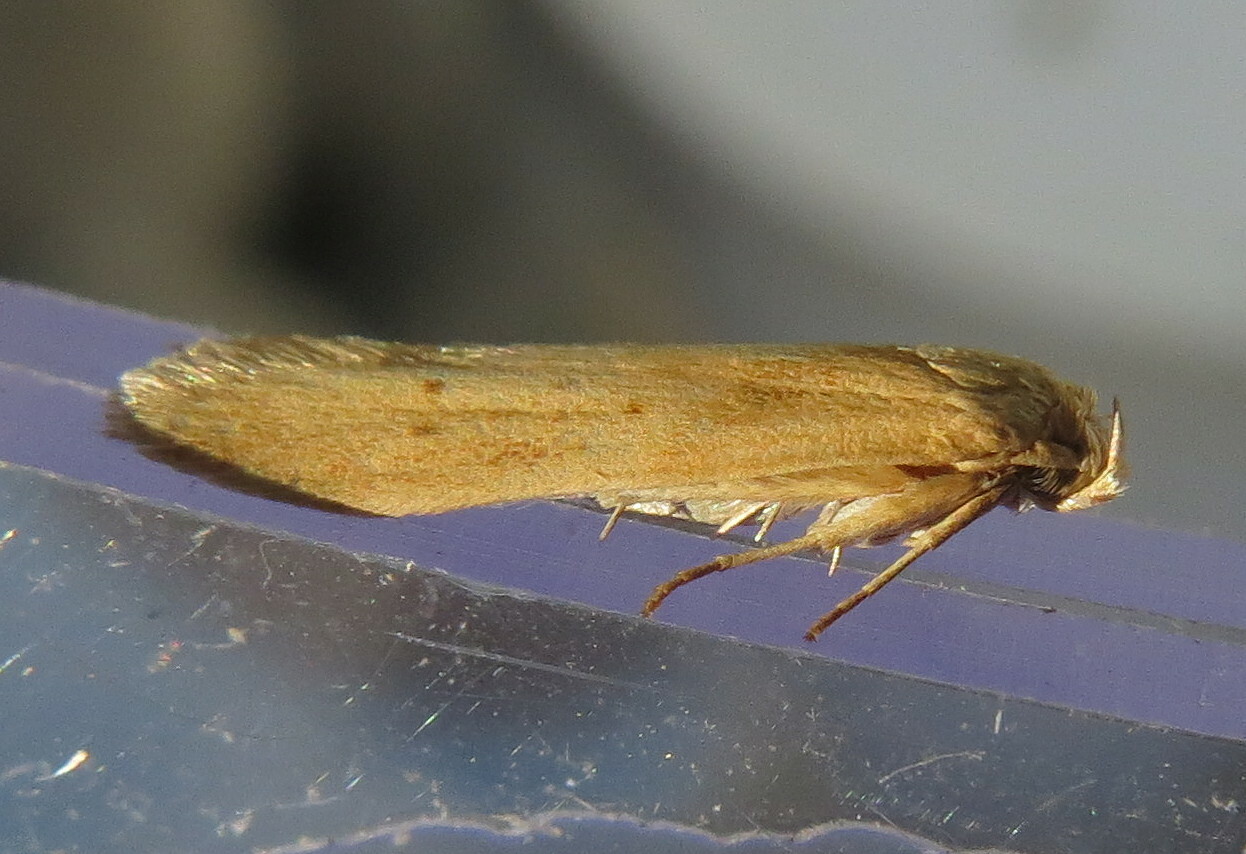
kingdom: Animalia
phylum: Arthropoda
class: Insecta
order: Lepidoptera
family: Blastobasidae
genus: Blastobasis
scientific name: Blastobasis lacticolella
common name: London dowd
